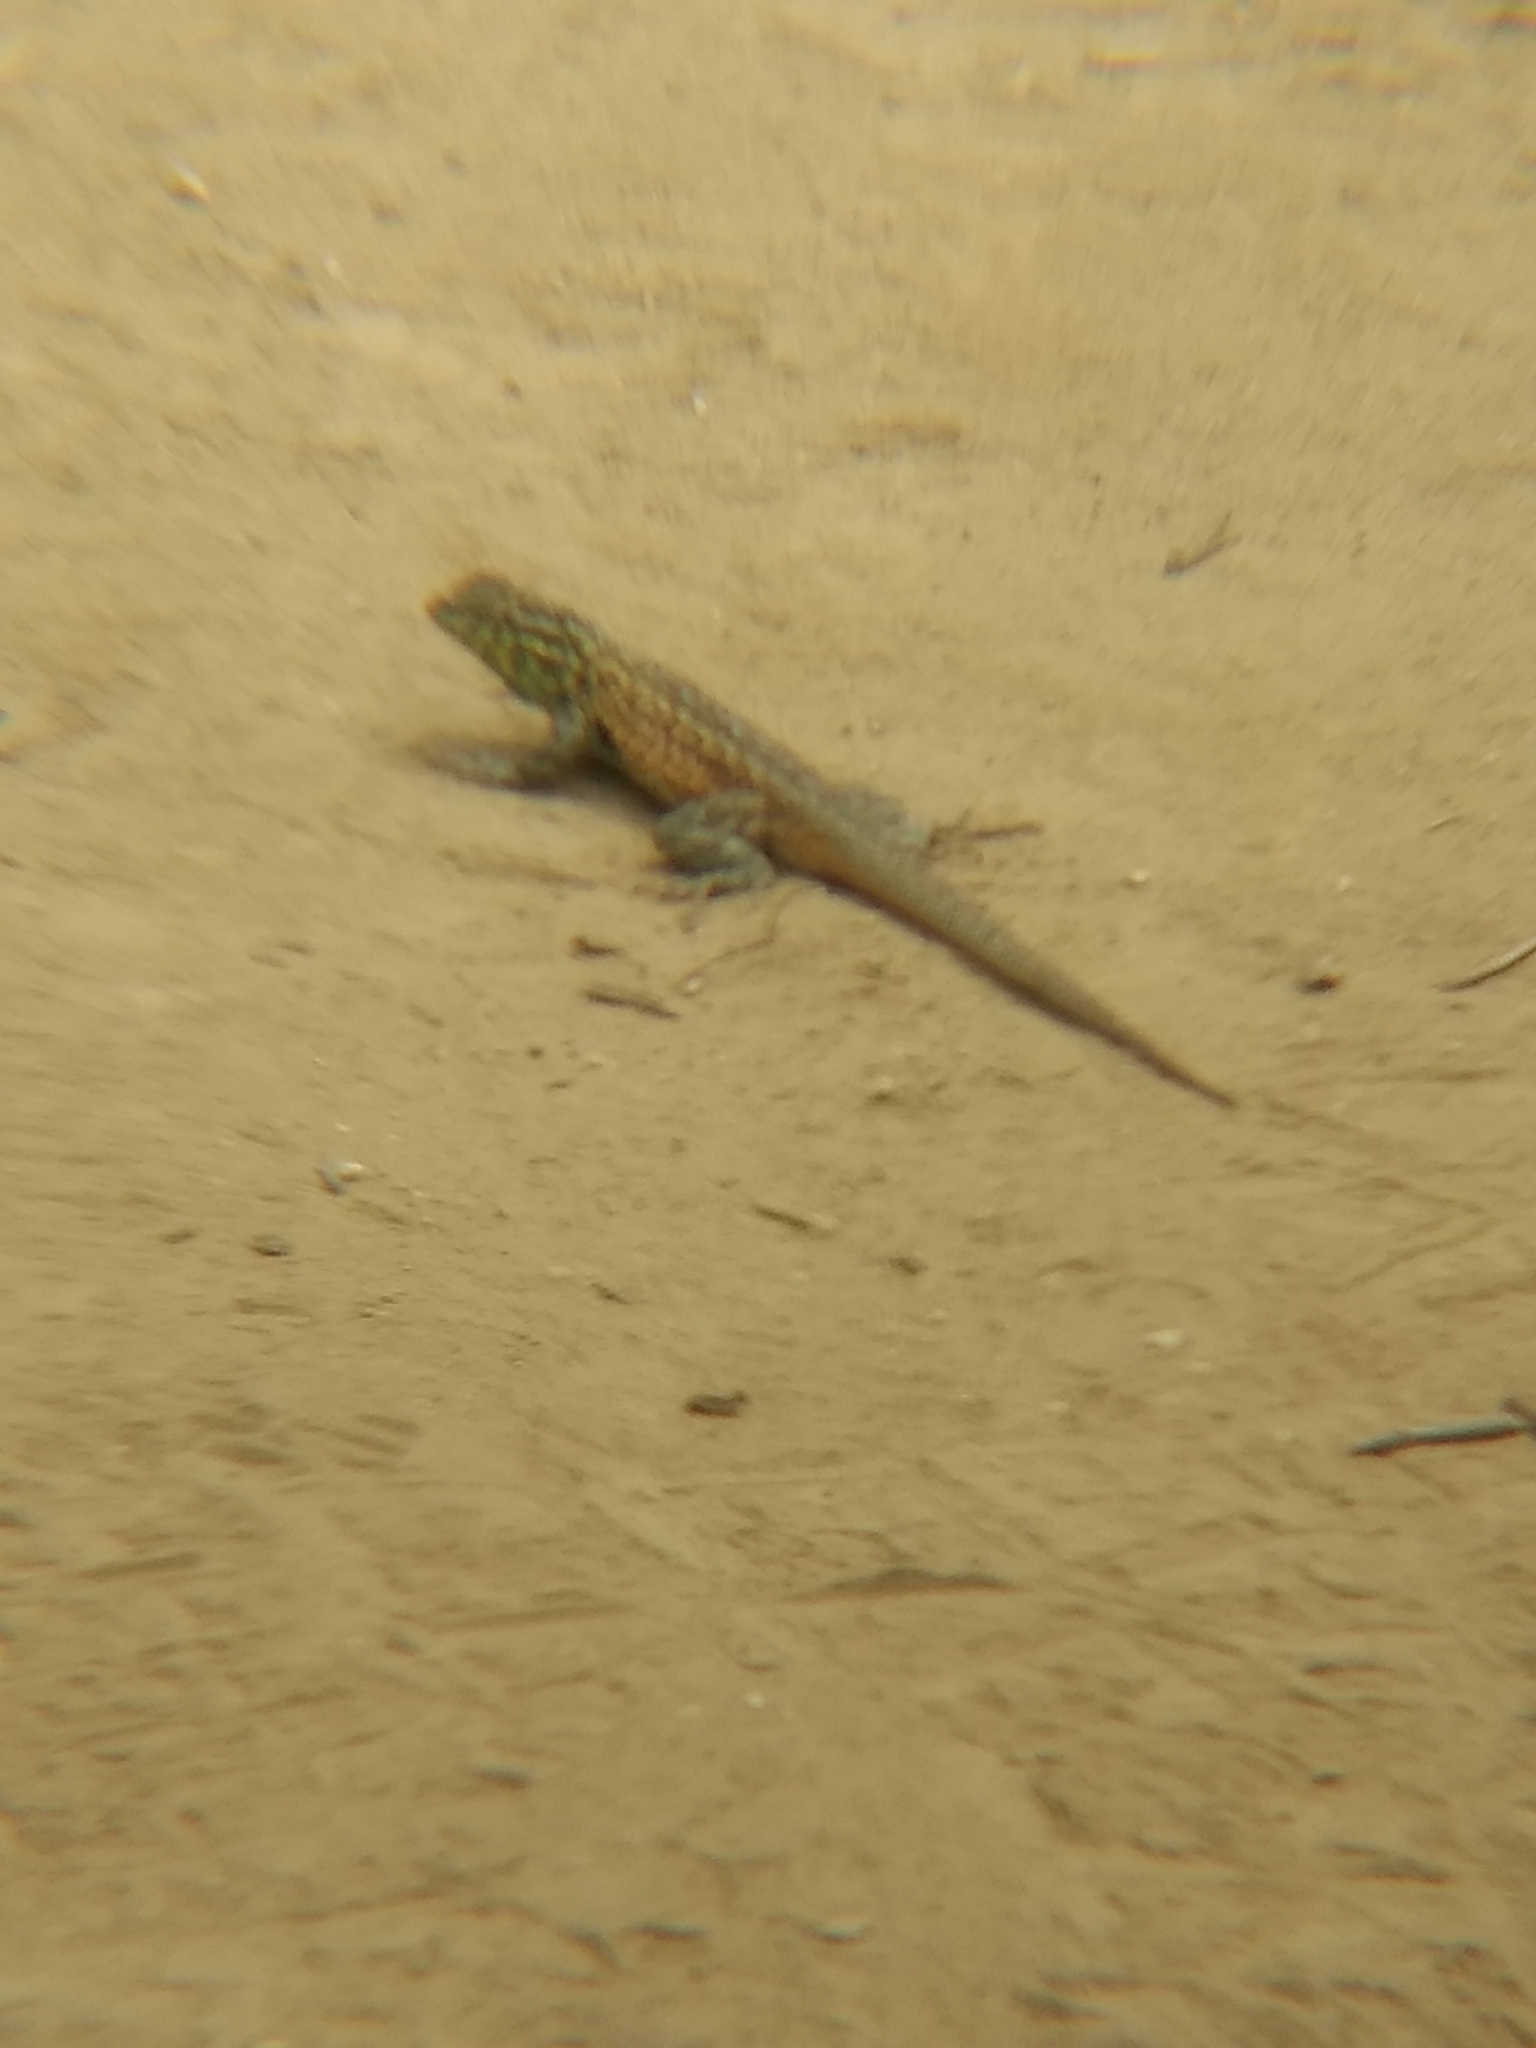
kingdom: Animalia
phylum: Chordata
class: Squamata
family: Phrynosomatidae
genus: Uta
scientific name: Uta stansburiana
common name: Side-blotched lizard
